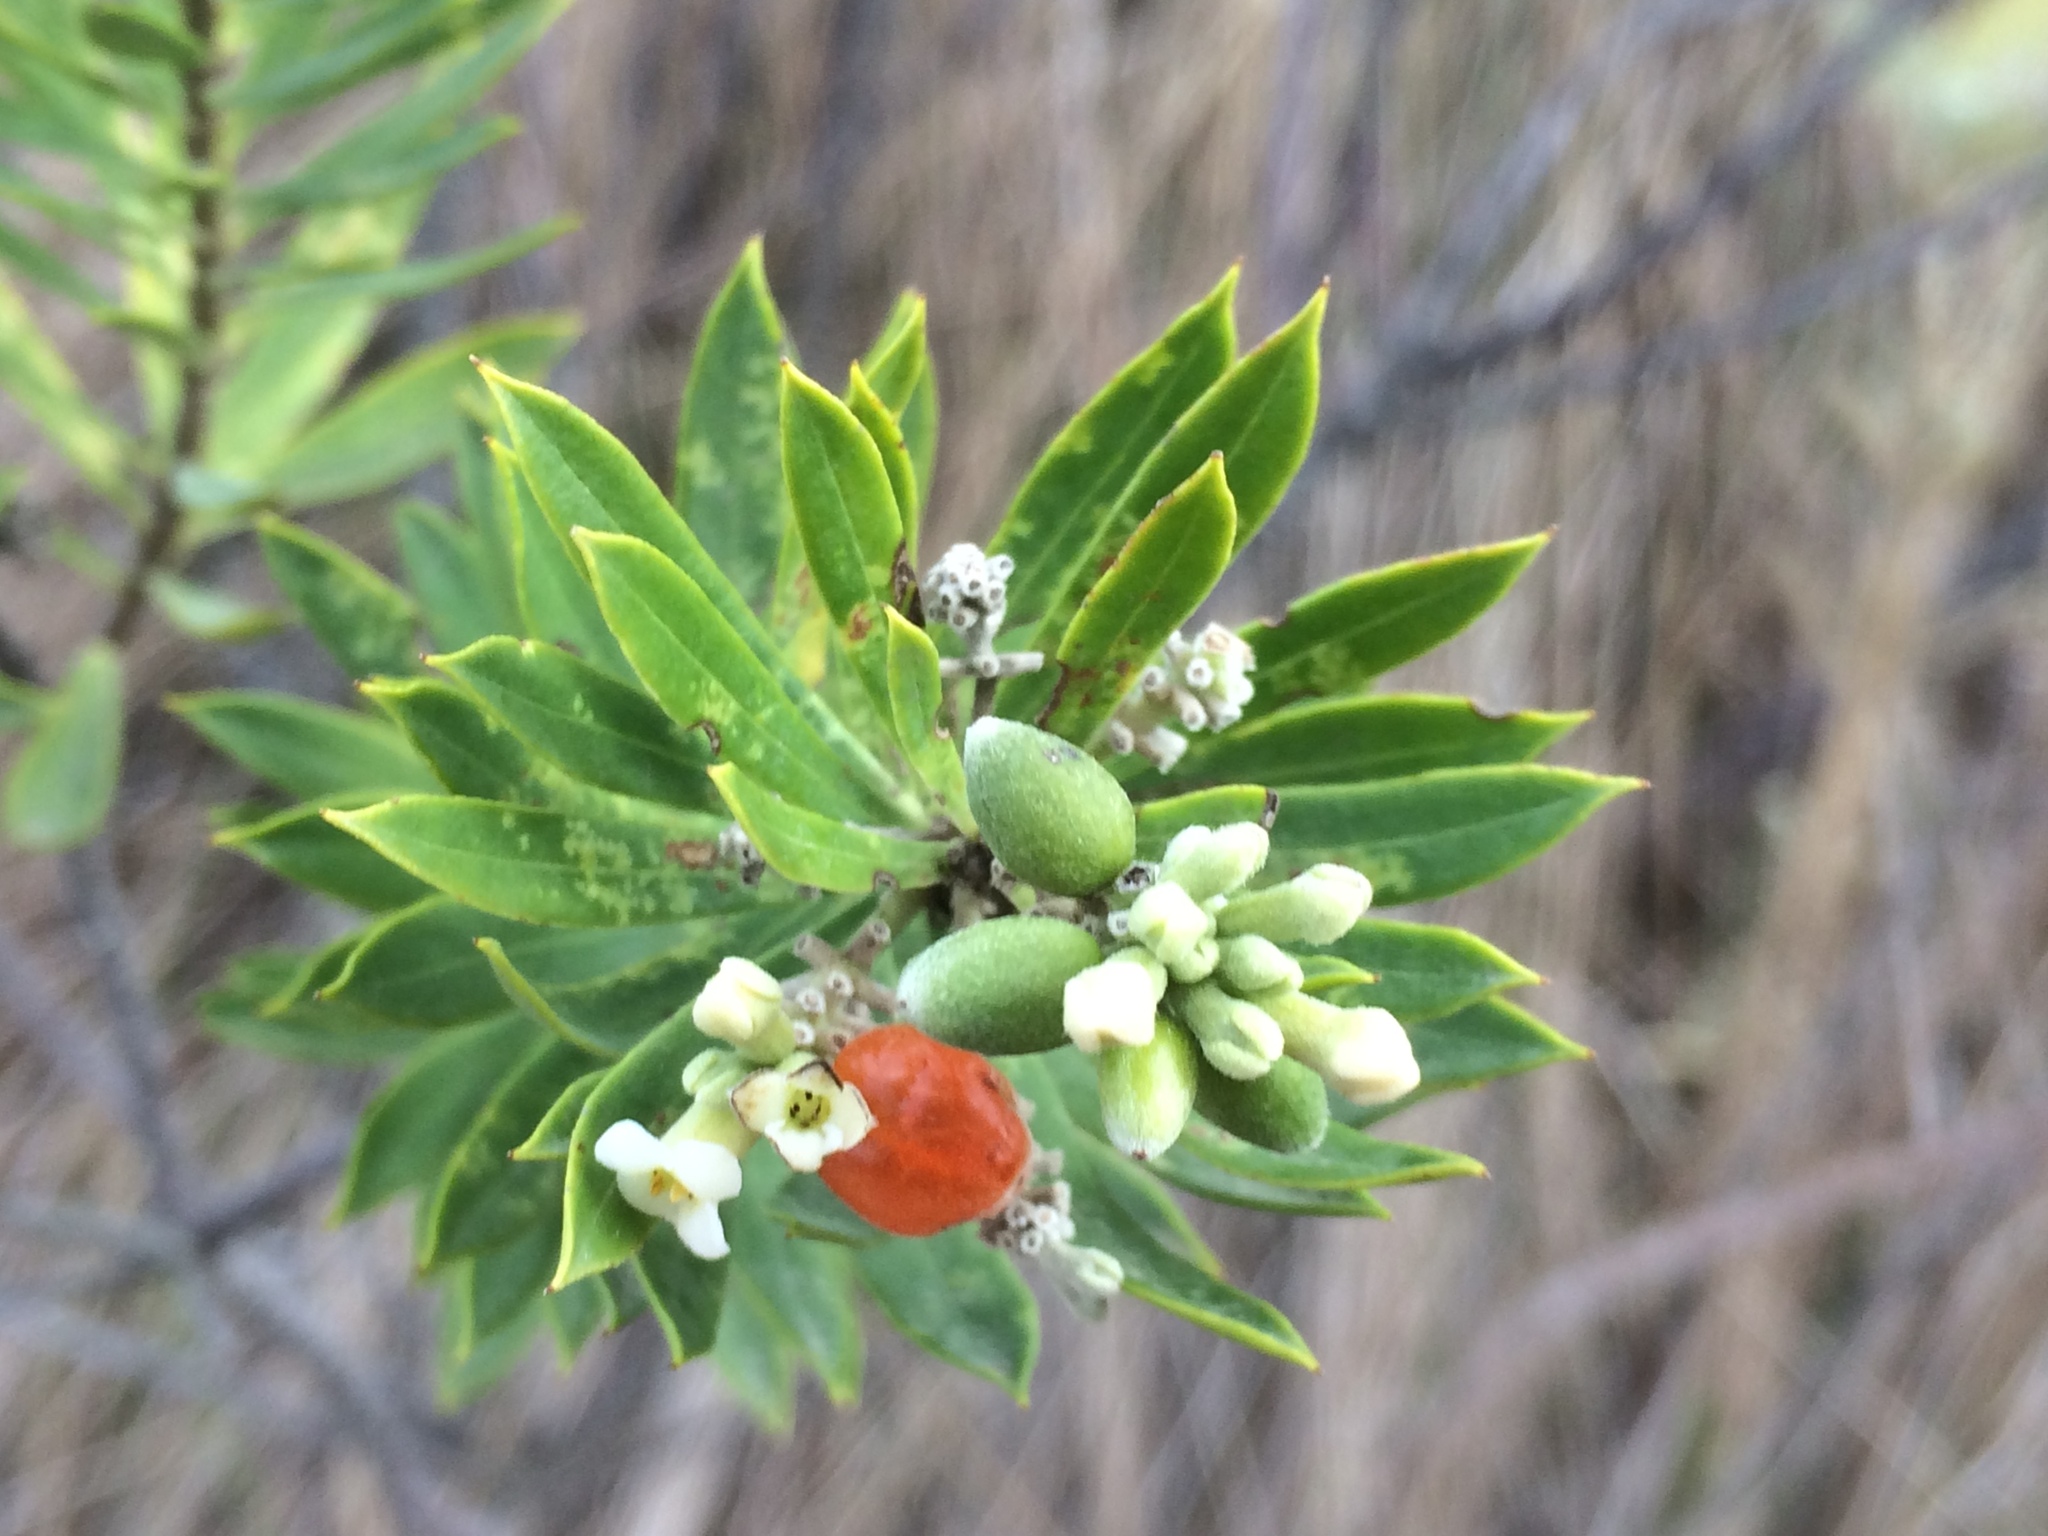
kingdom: Plantae
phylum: Tracheophyta
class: Magnoliopsida
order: Malvales
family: Thymelaeaceae
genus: Daphne
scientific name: Daphne gnidium
